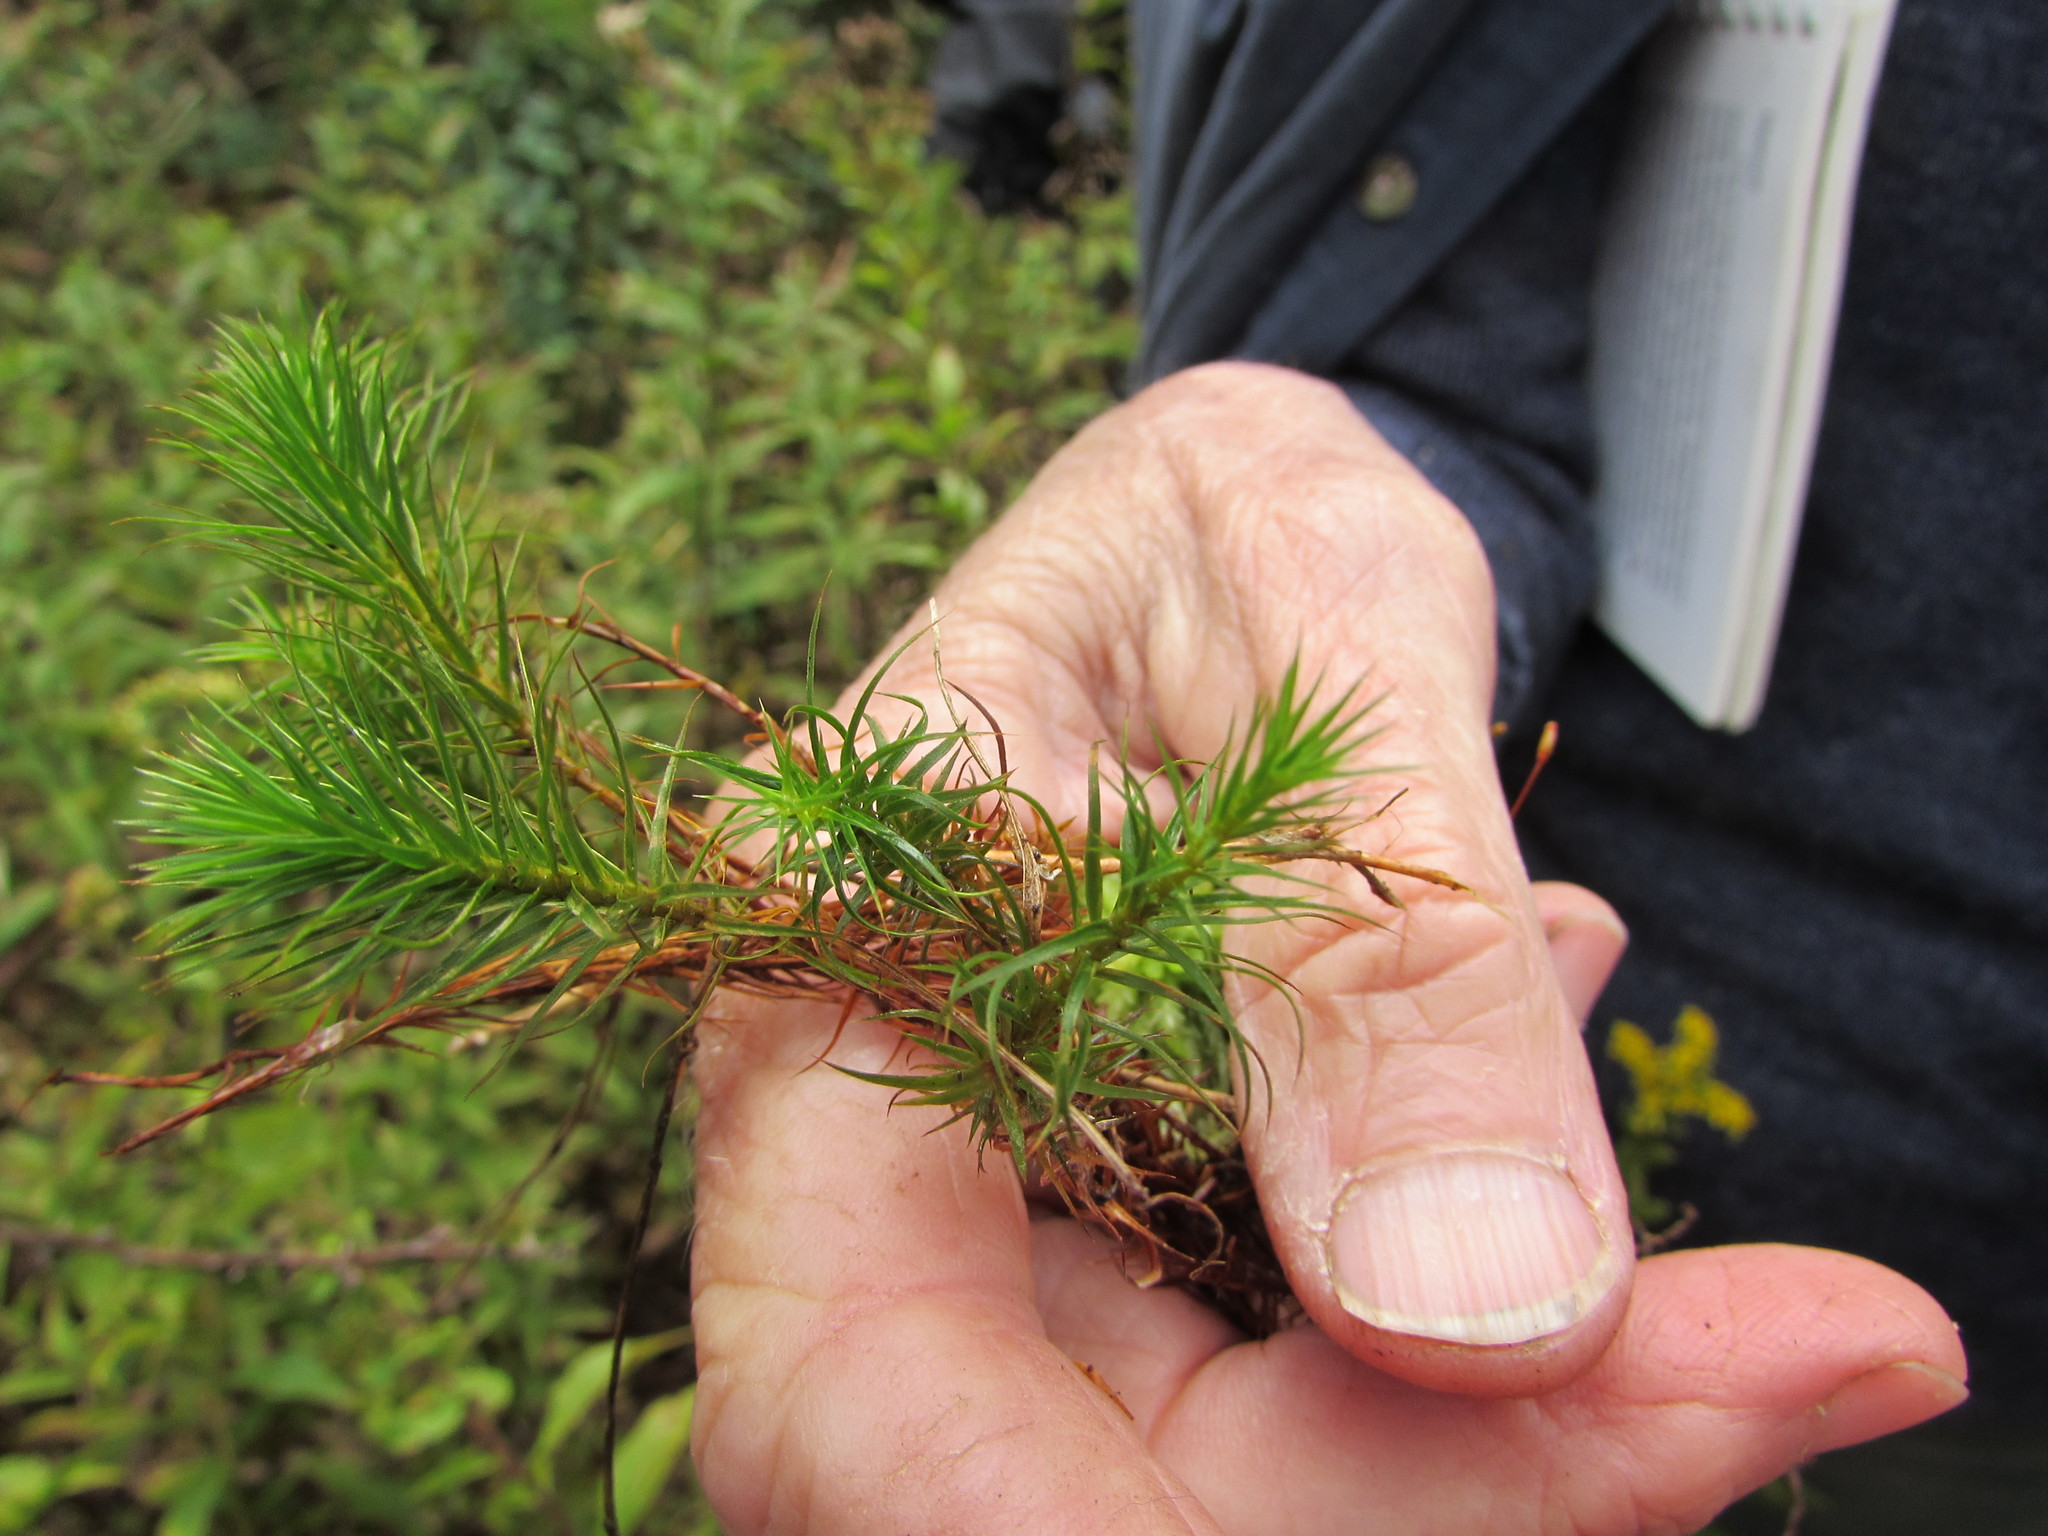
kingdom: Plantae
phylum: Bryophyta
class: Polytrichopsida
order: Polytrichales
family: Polytrichaceae
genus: Polytrichum
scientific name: Polytrichum commune
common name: Common haircap
